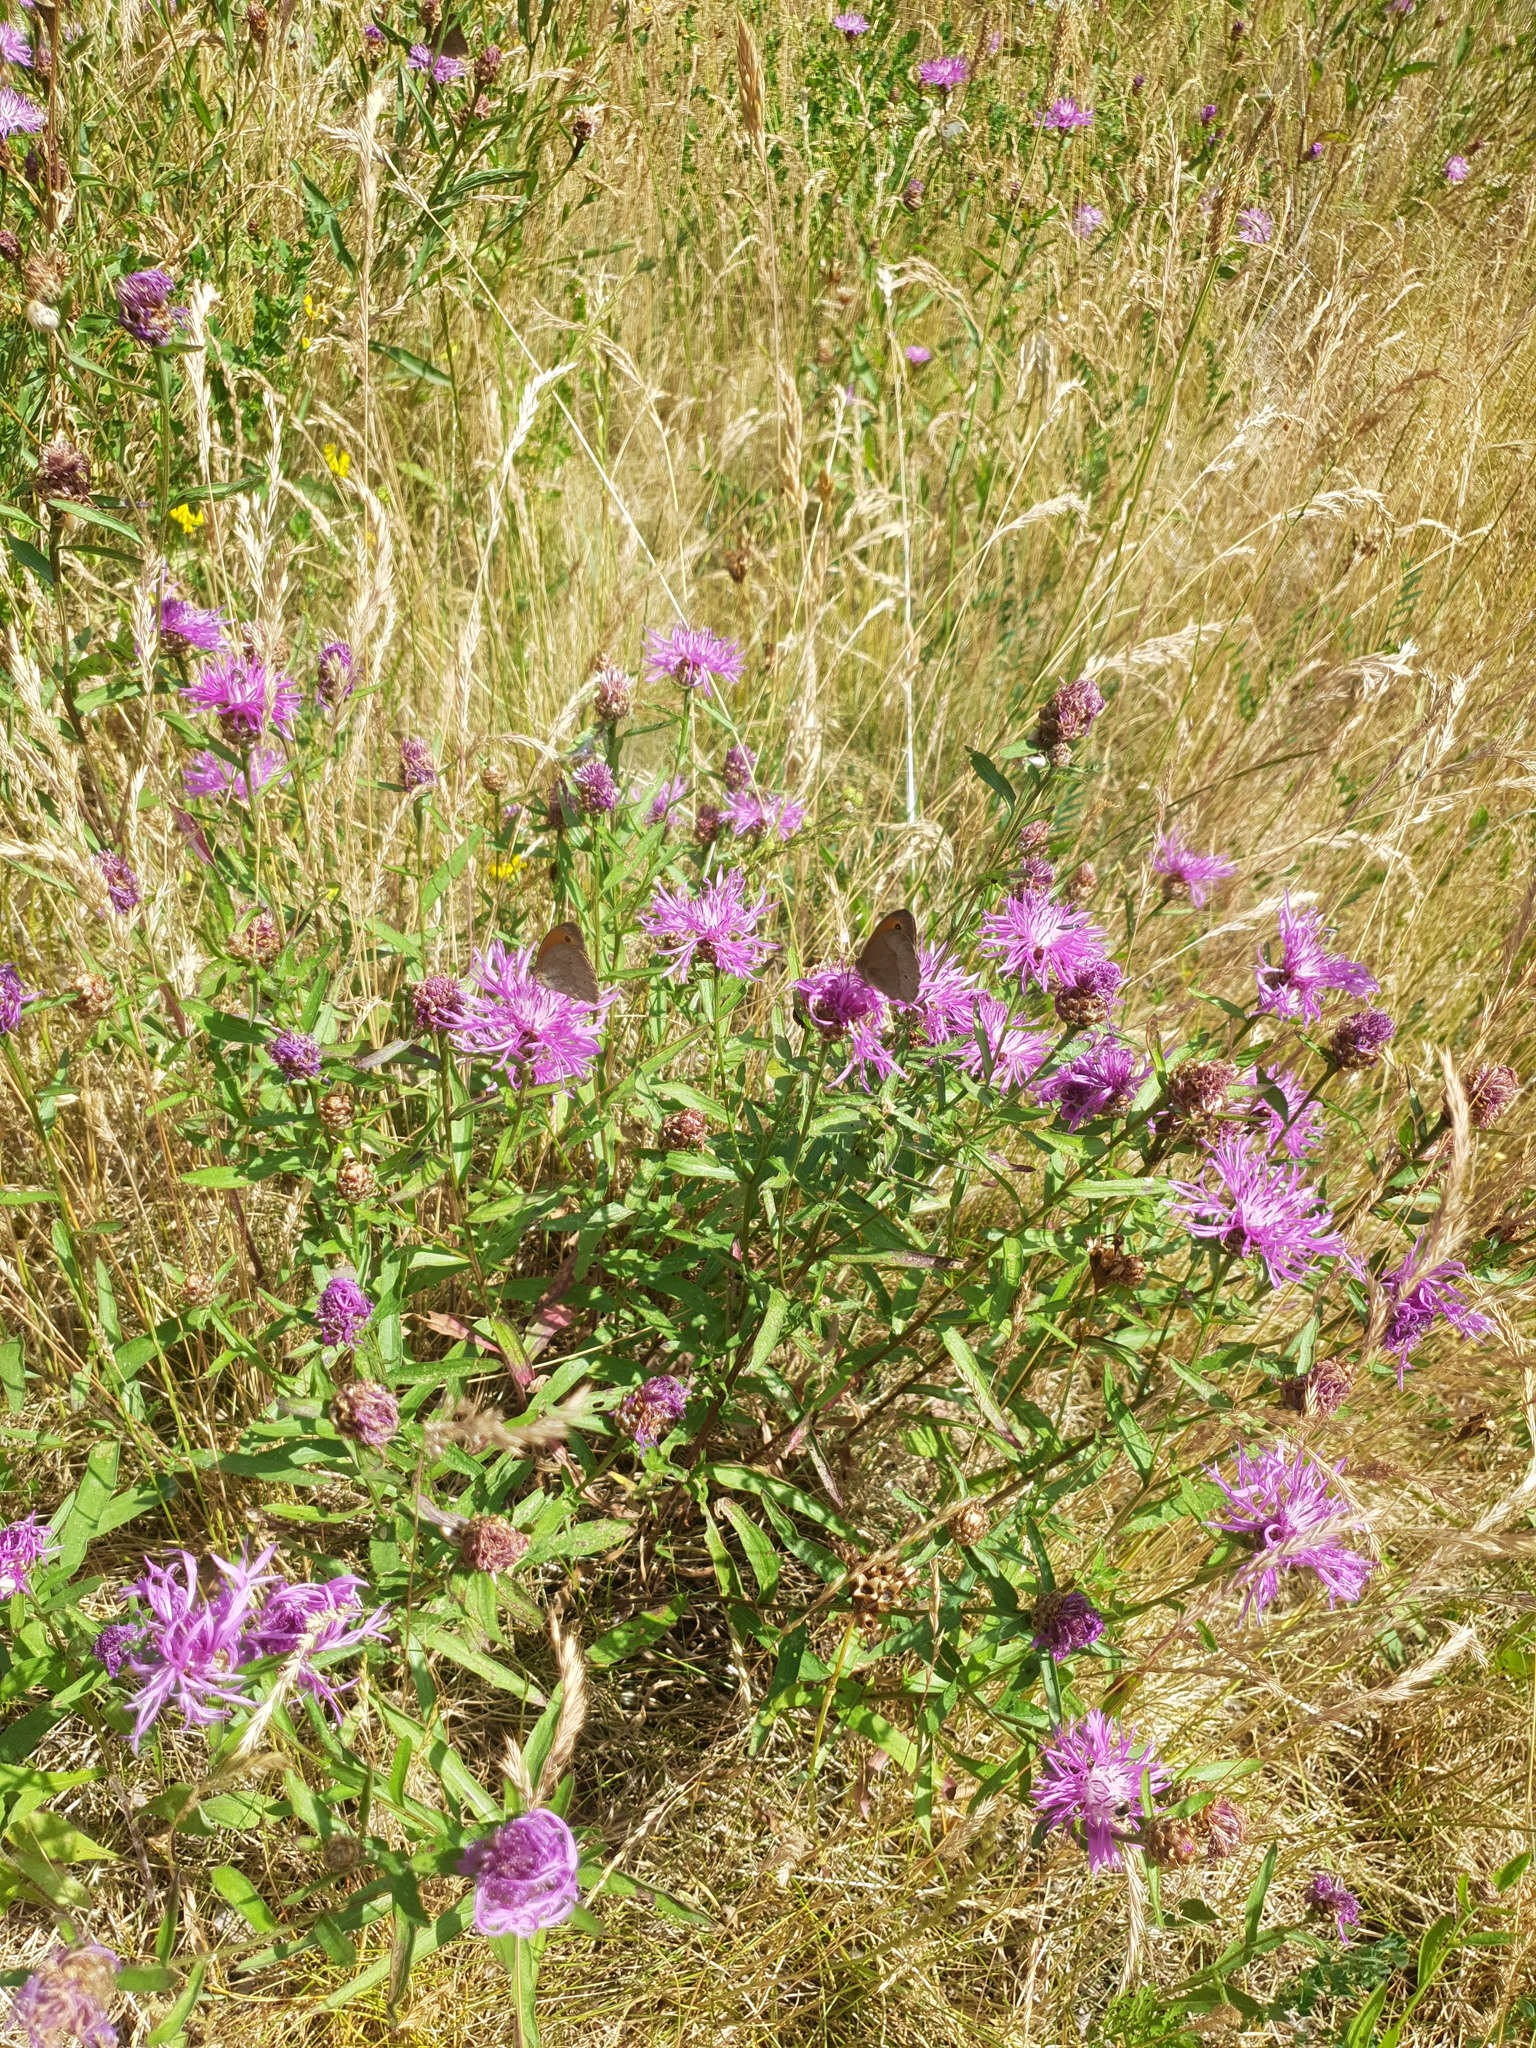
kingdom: Plantae
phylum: Tracheophyta
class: Magnoliopsida
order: Asterales
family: Asteraceae
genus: Centaurea
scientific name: Centaurea jacea
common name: Brown knapweed
